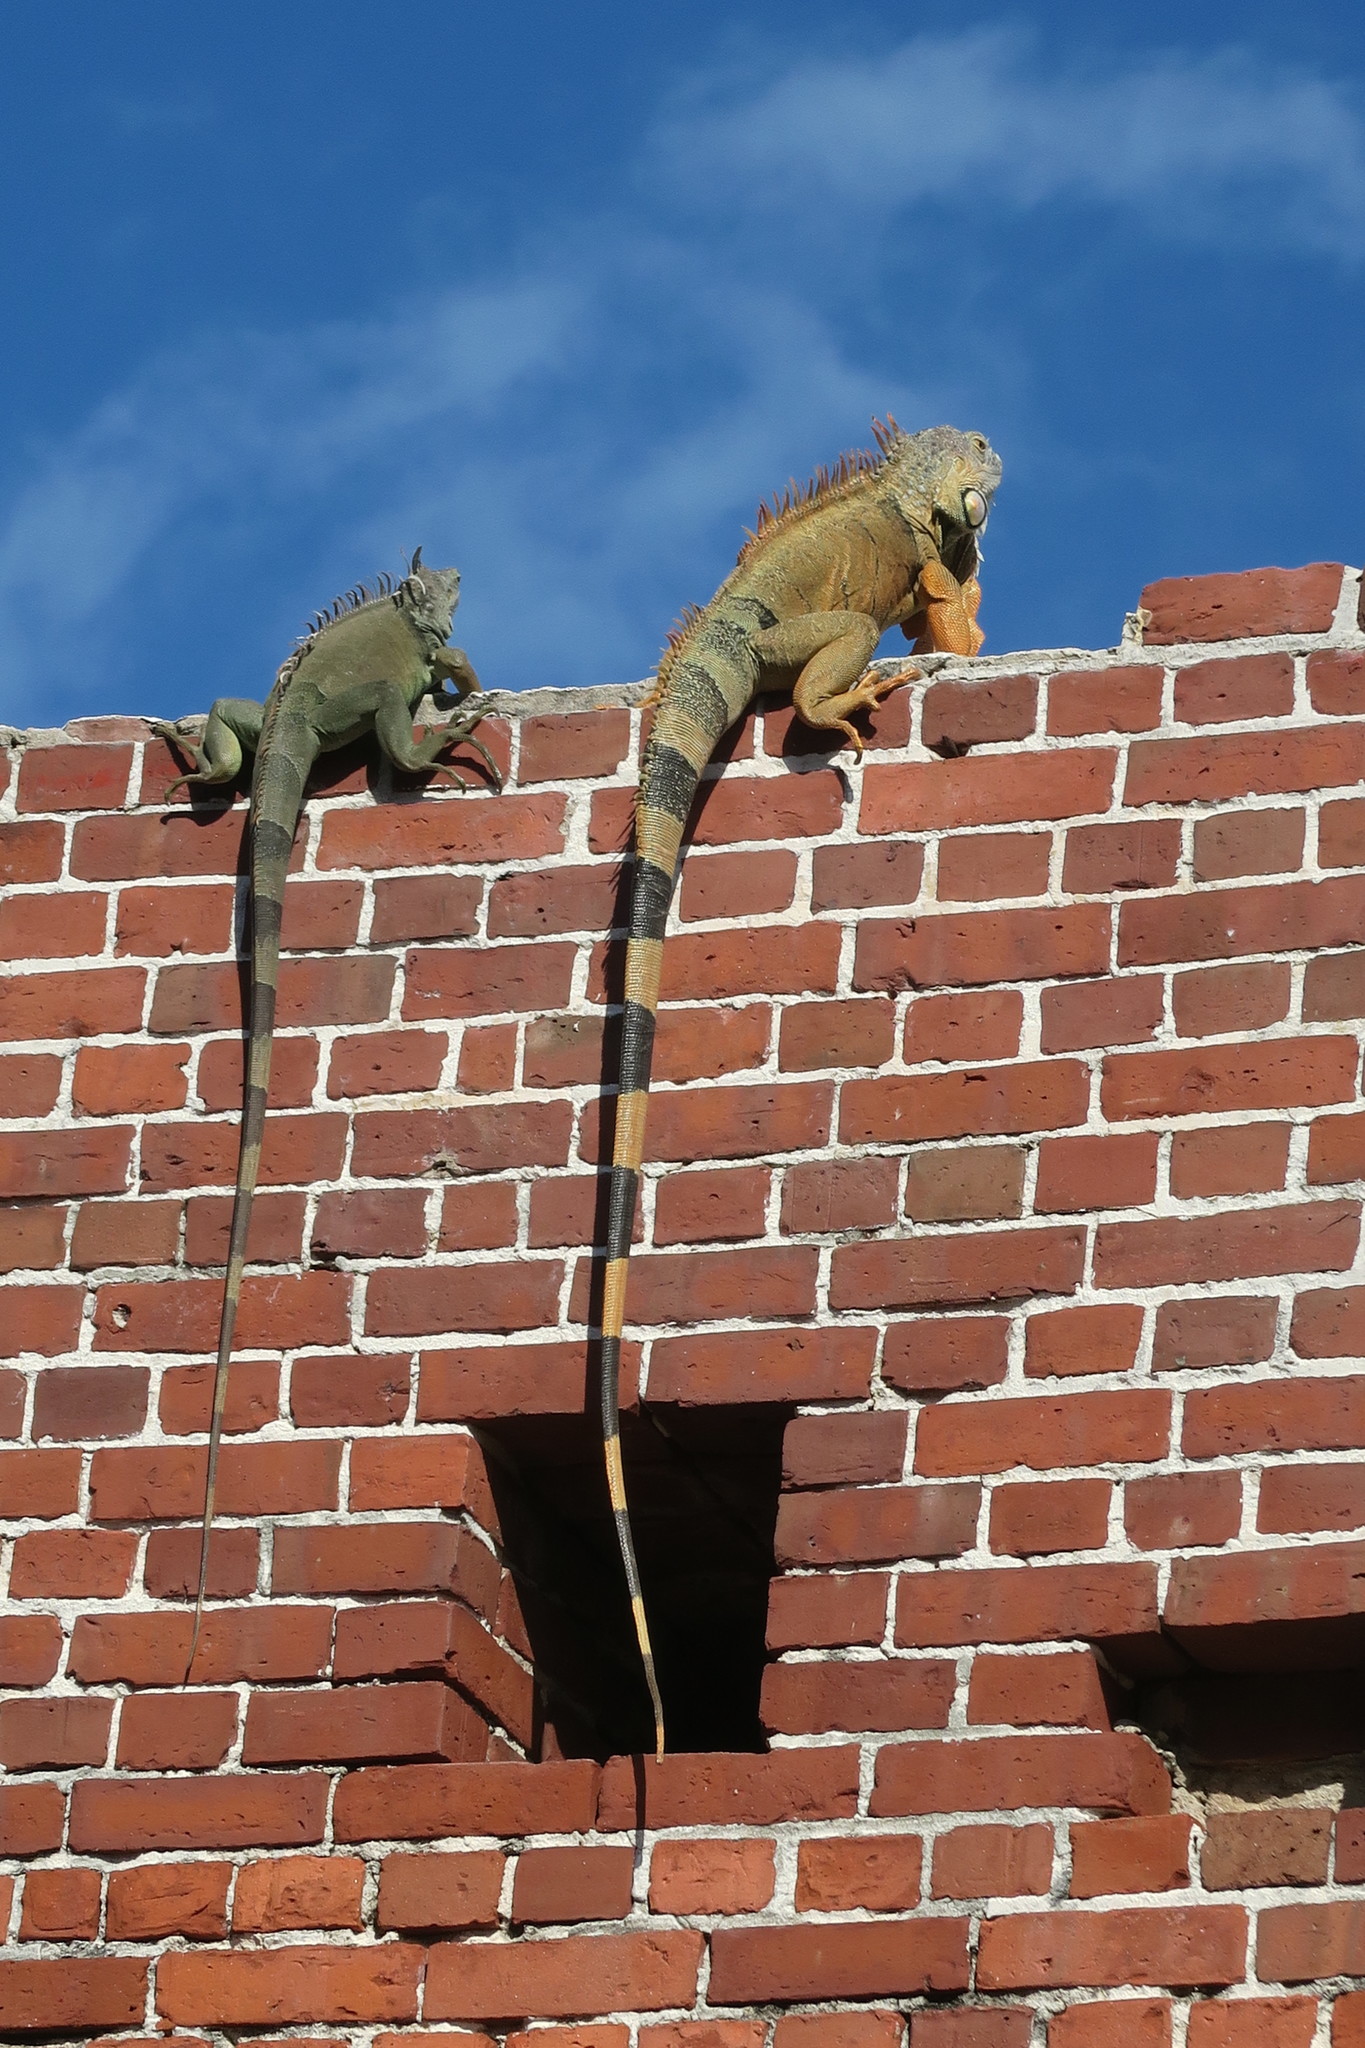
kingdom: Animalia
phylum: Chordata
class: Squamata
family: Iguanidae
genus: Iguana
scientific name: Iguana iguana
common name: Green iguana
